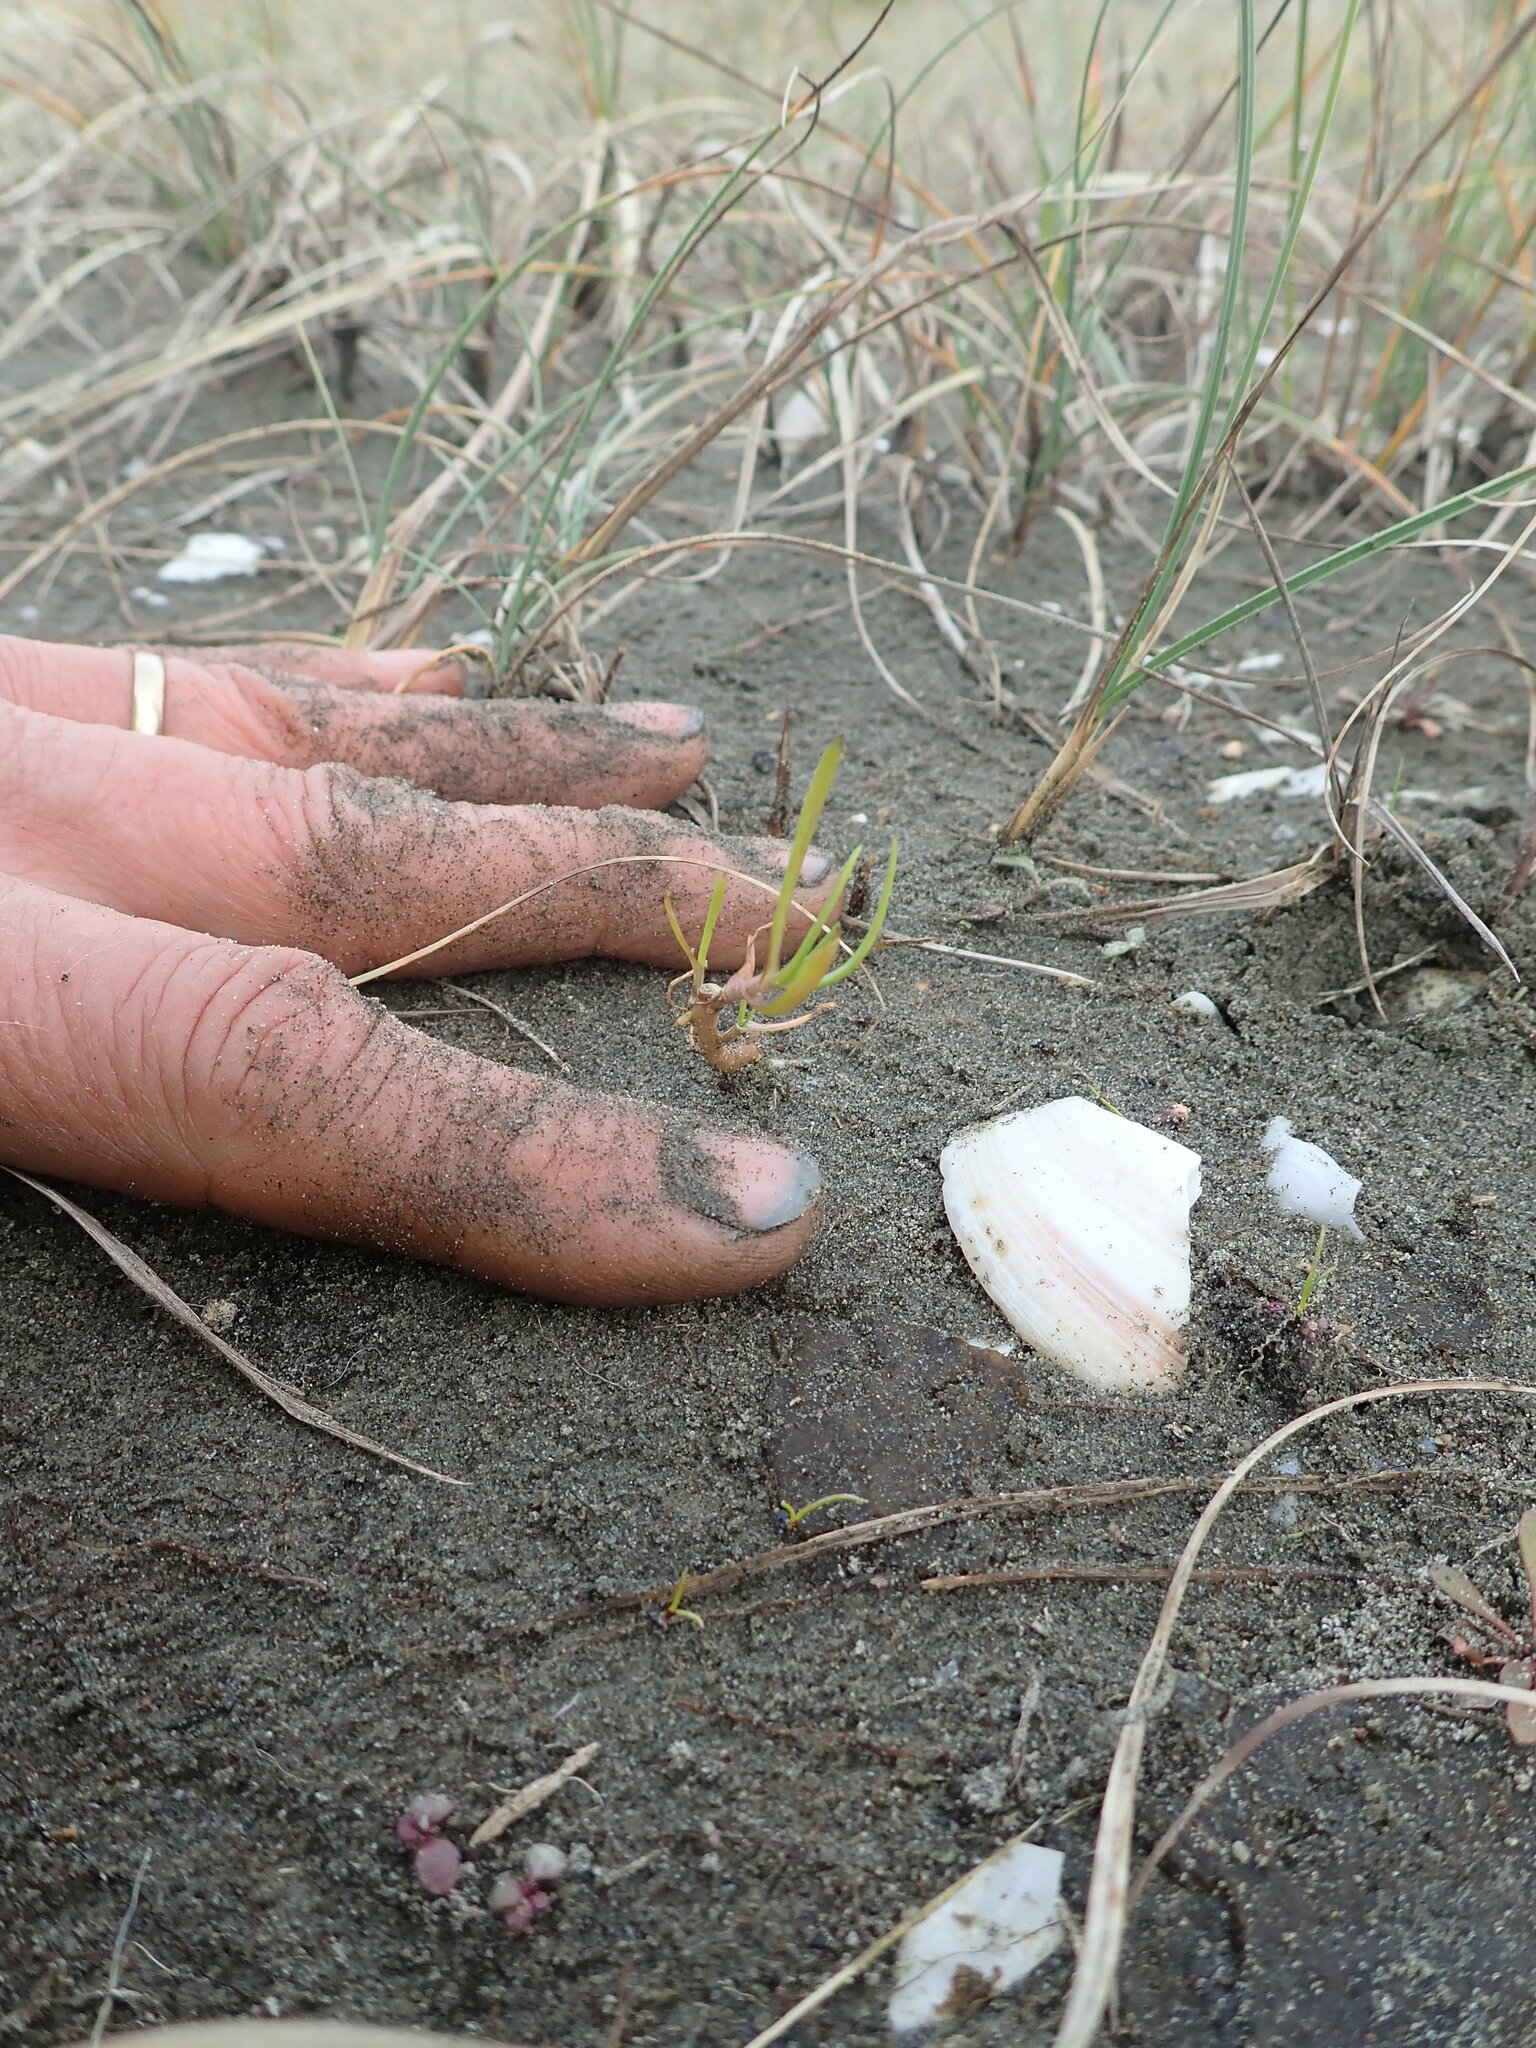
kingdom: Plantae
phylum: Tracheophyta
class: Magnoliopsida
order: Asterales
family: Asteraceae
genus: Cotula
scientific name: Cotula coronopifolia
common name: Buttonweed
